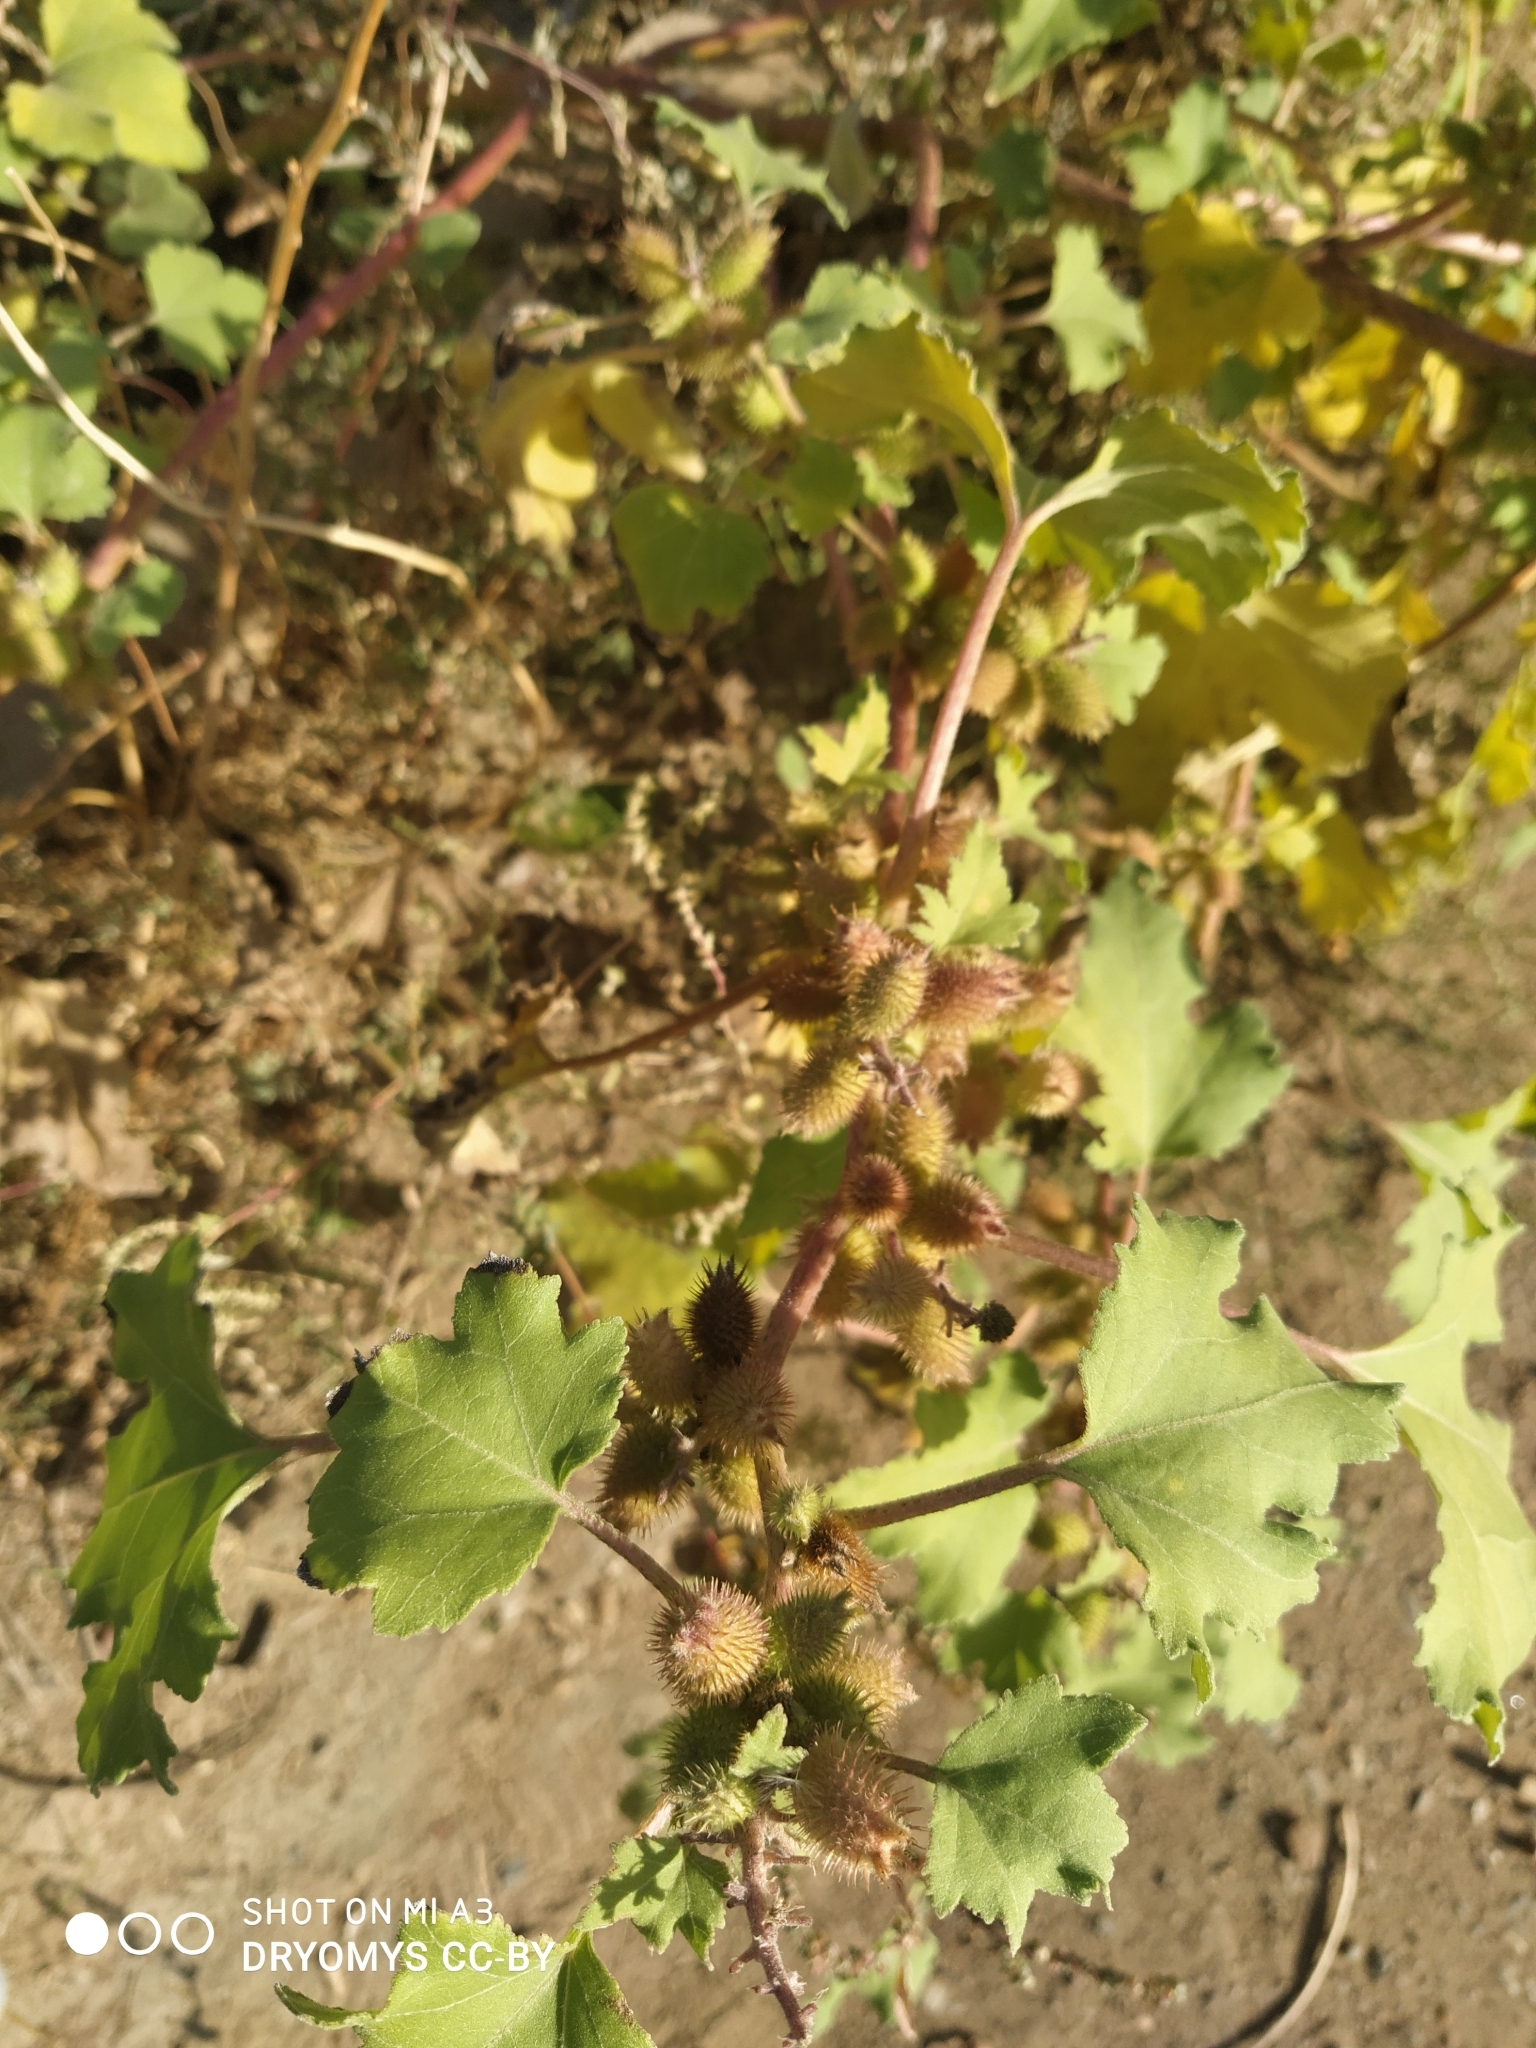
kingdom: Plantae
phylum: Tracheophyta
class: Magnoliopsida
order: Asterales
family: Asteraceae
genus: Xanthium
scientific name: Xanthium orientale
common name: Californian burr
